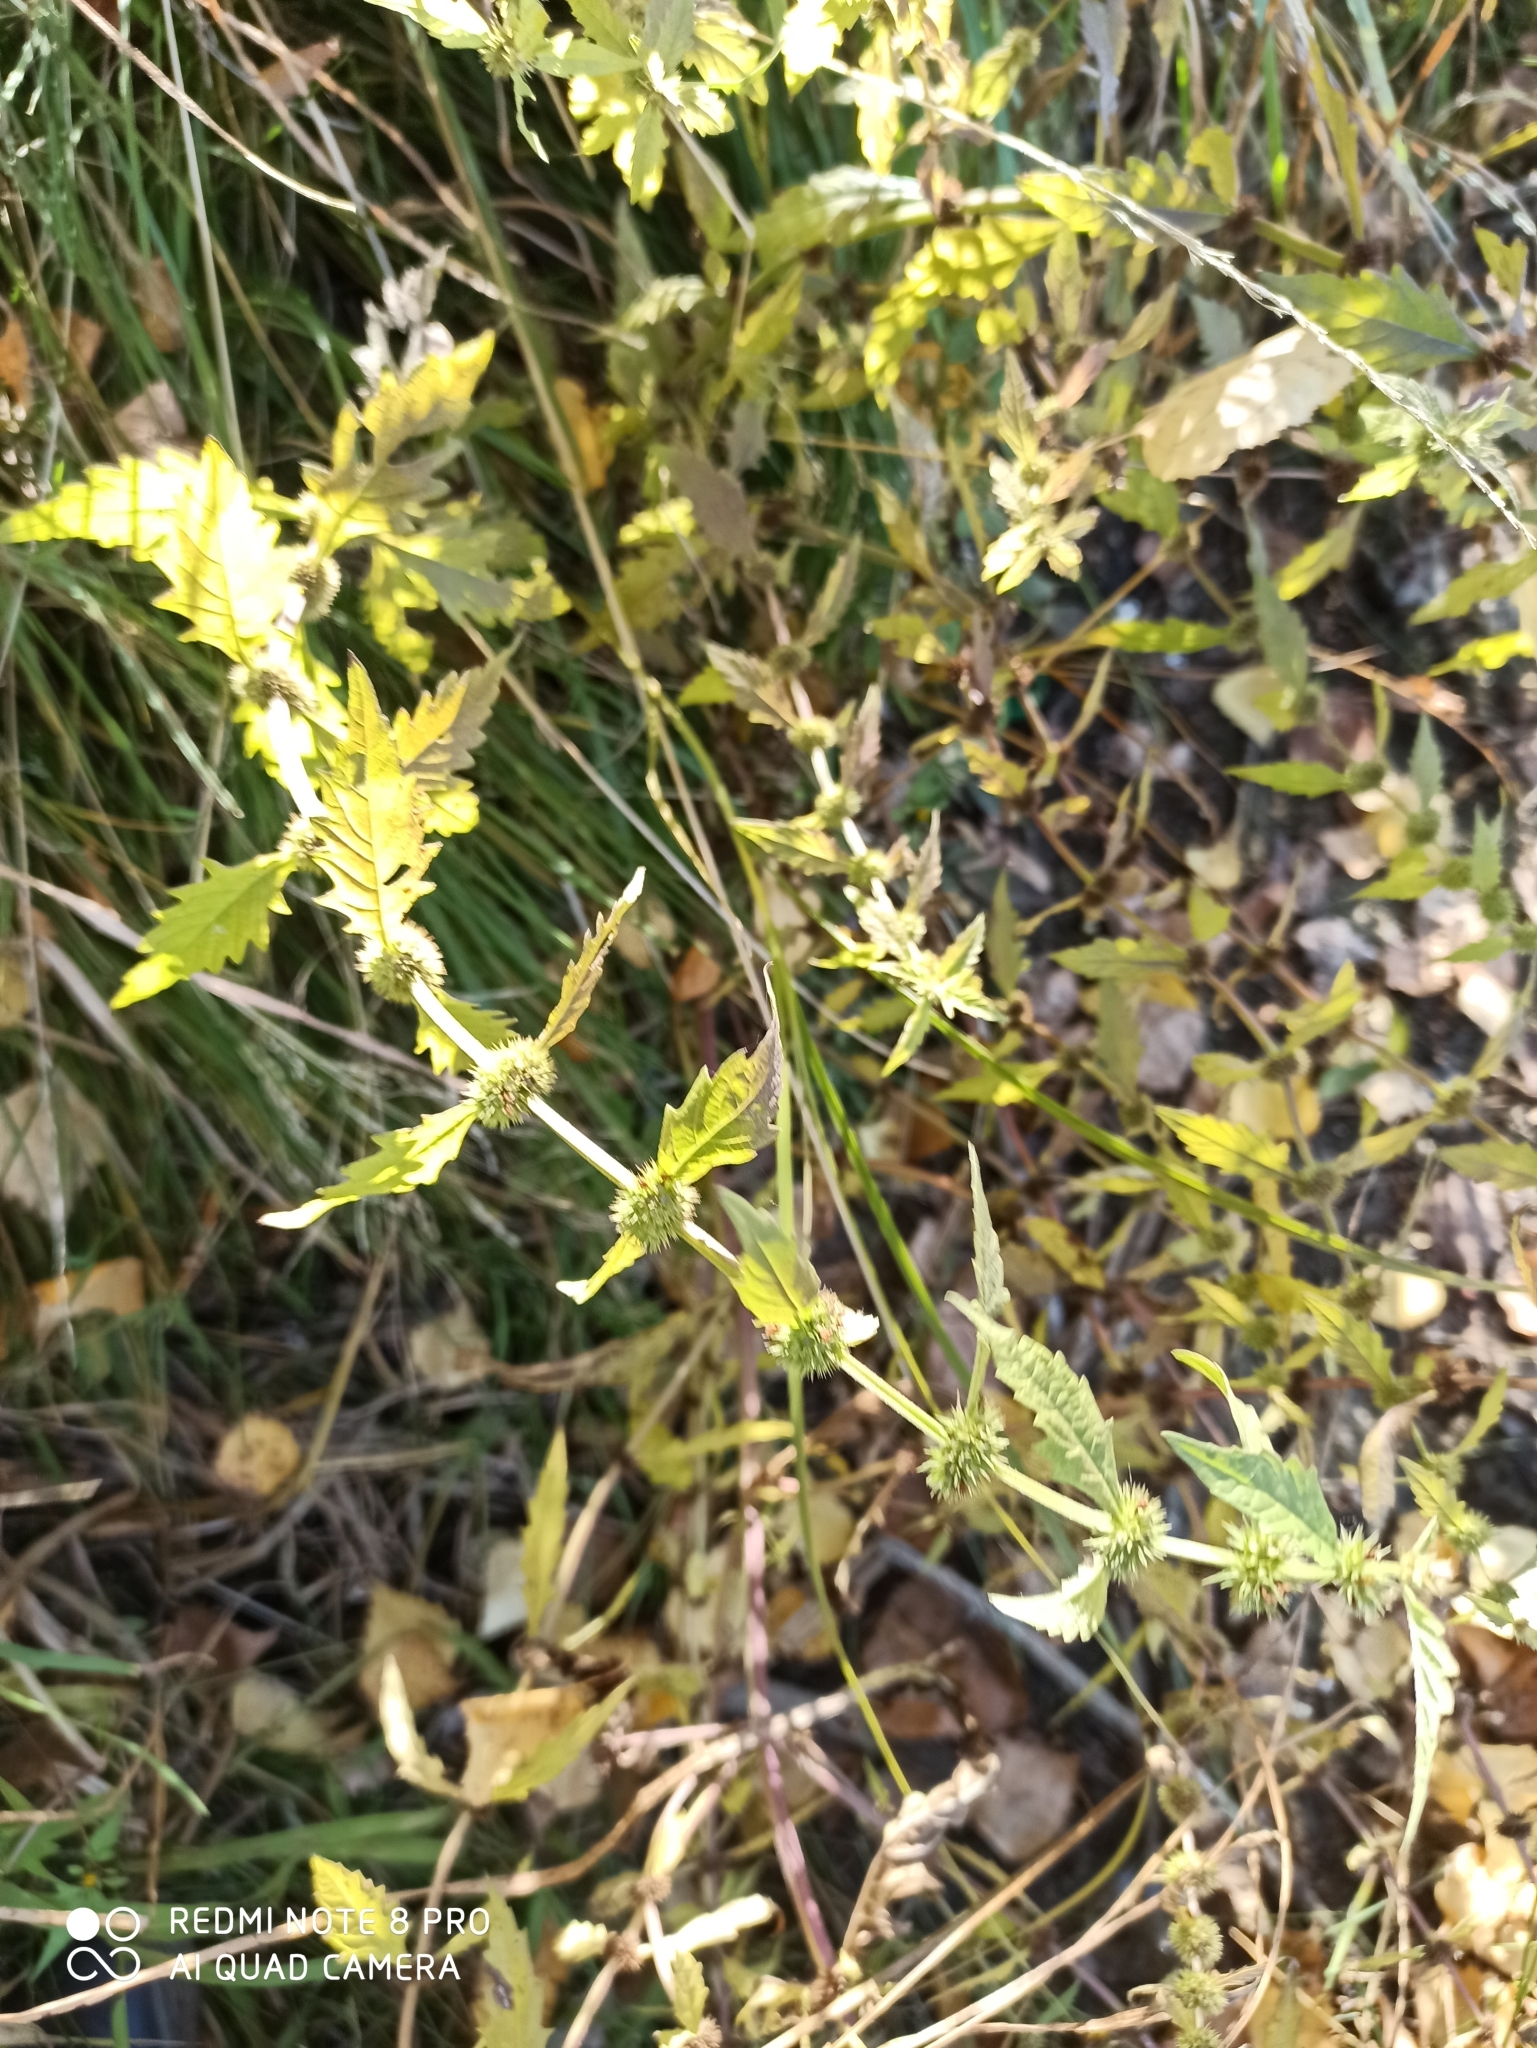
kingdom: Plantae
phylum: Tracheophyta
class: Magnoliopsida
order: Lamiales
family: Lamiaceae
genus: Lycopus
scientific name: Lycopus europaeus
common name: European bugleweed
